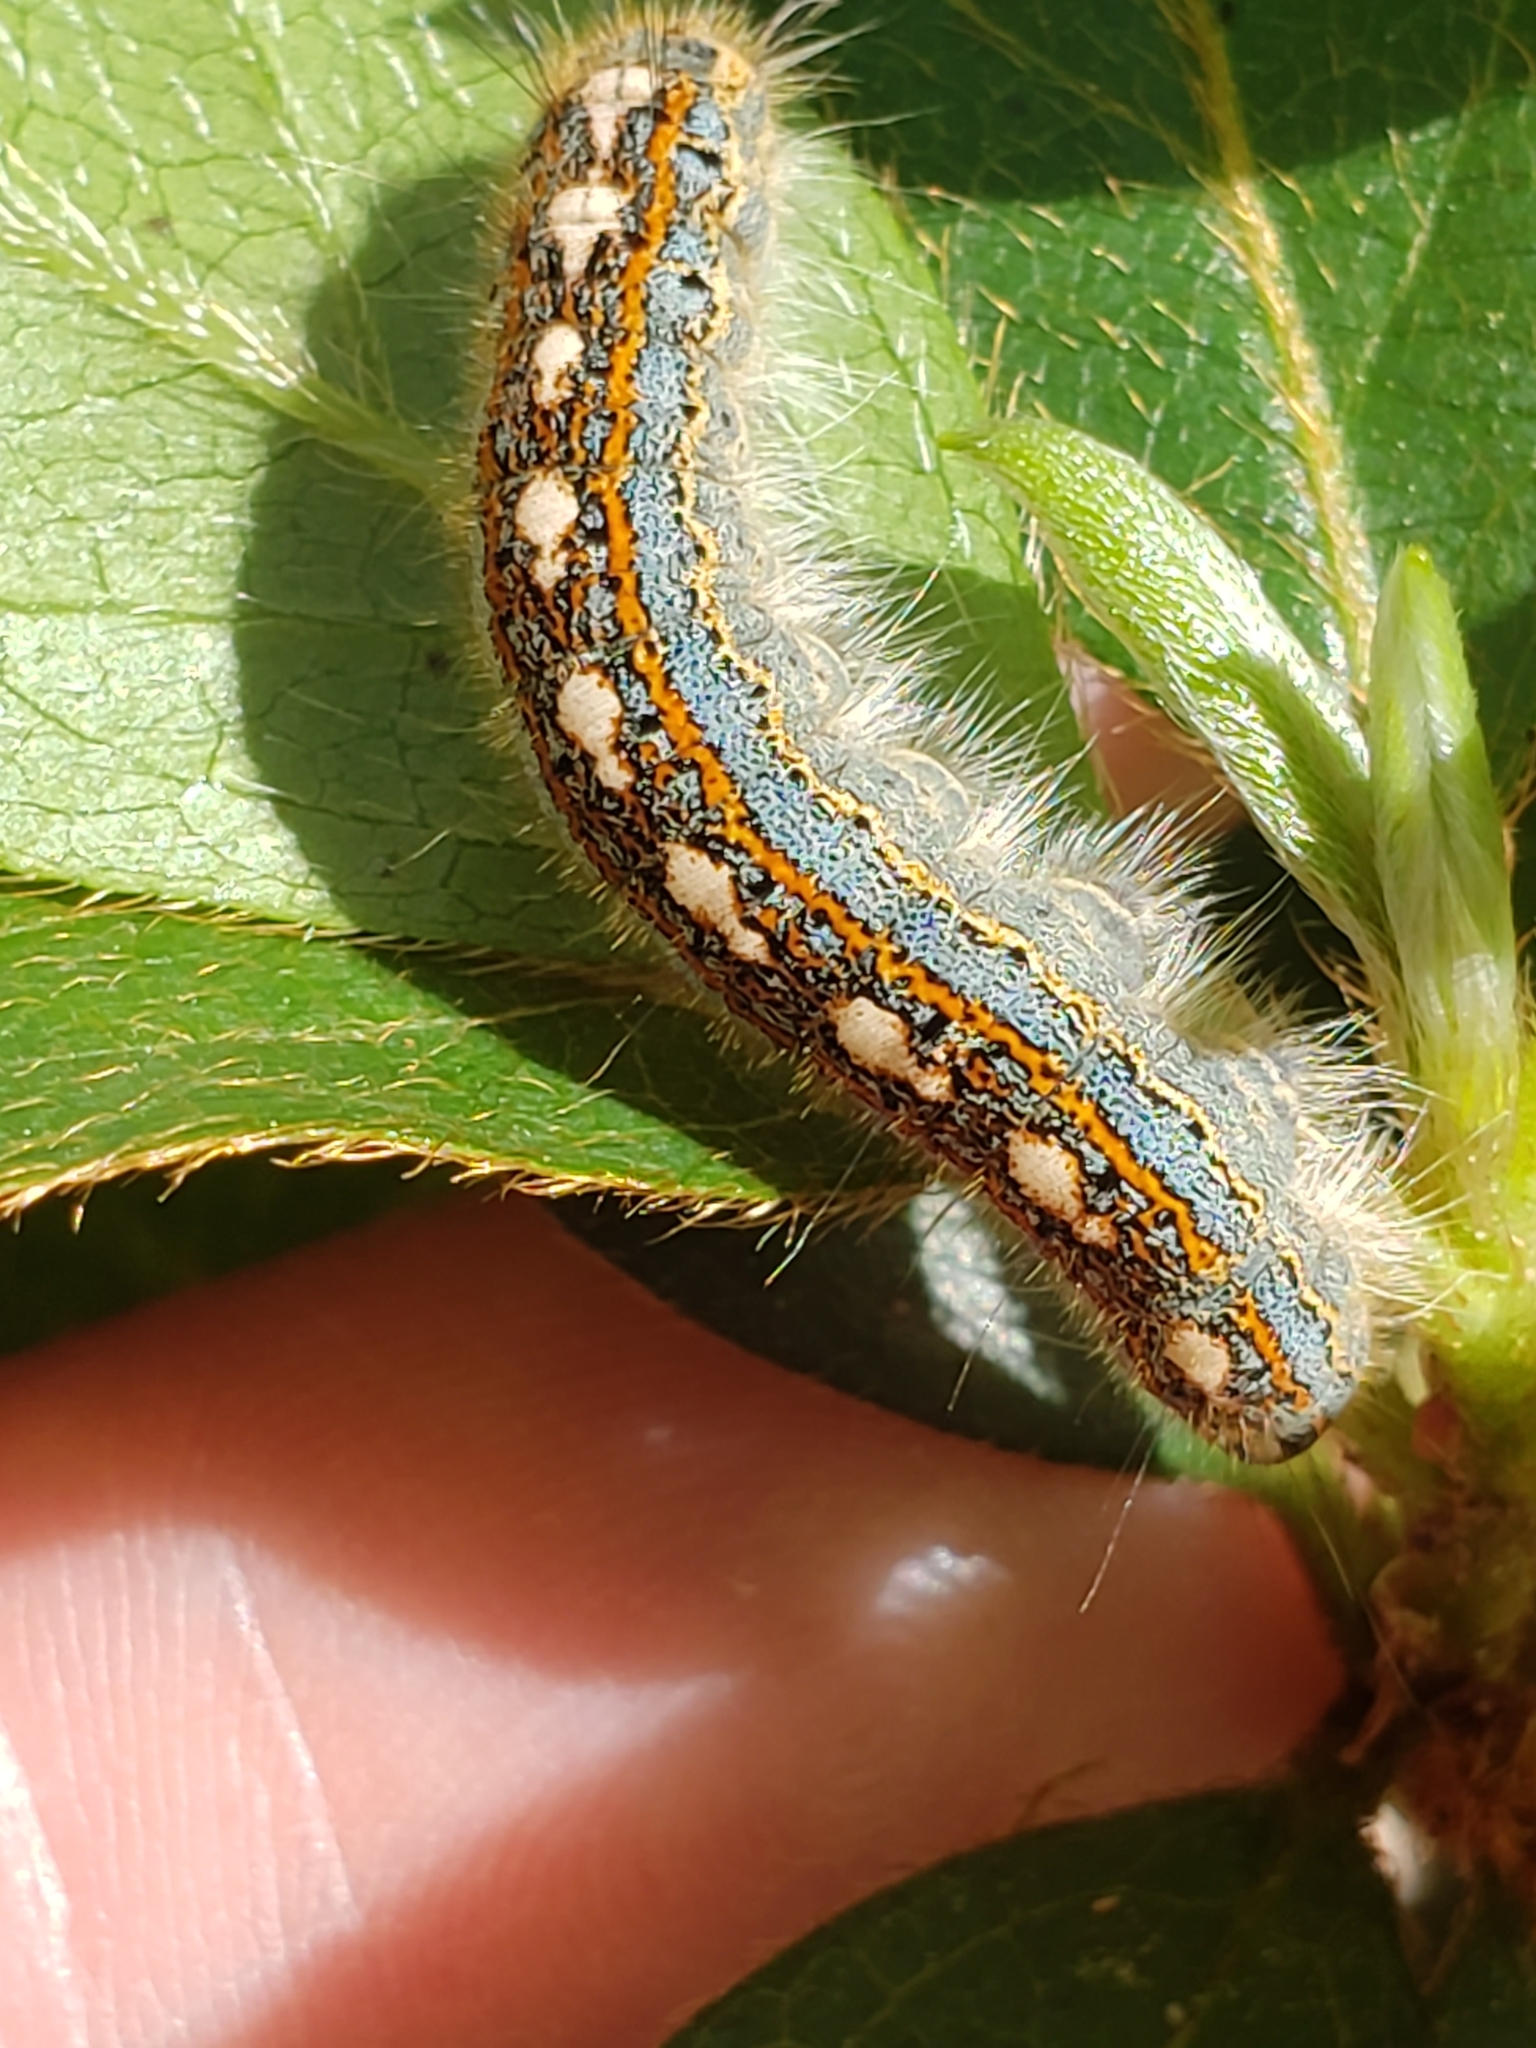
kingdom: Animalia
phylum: Arthropoda
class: Insecta
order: Lepidoptera
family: Lasiocampidae
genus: Malacosoma
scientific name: Malacosoma disstria
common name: Forest tent caterpillar
